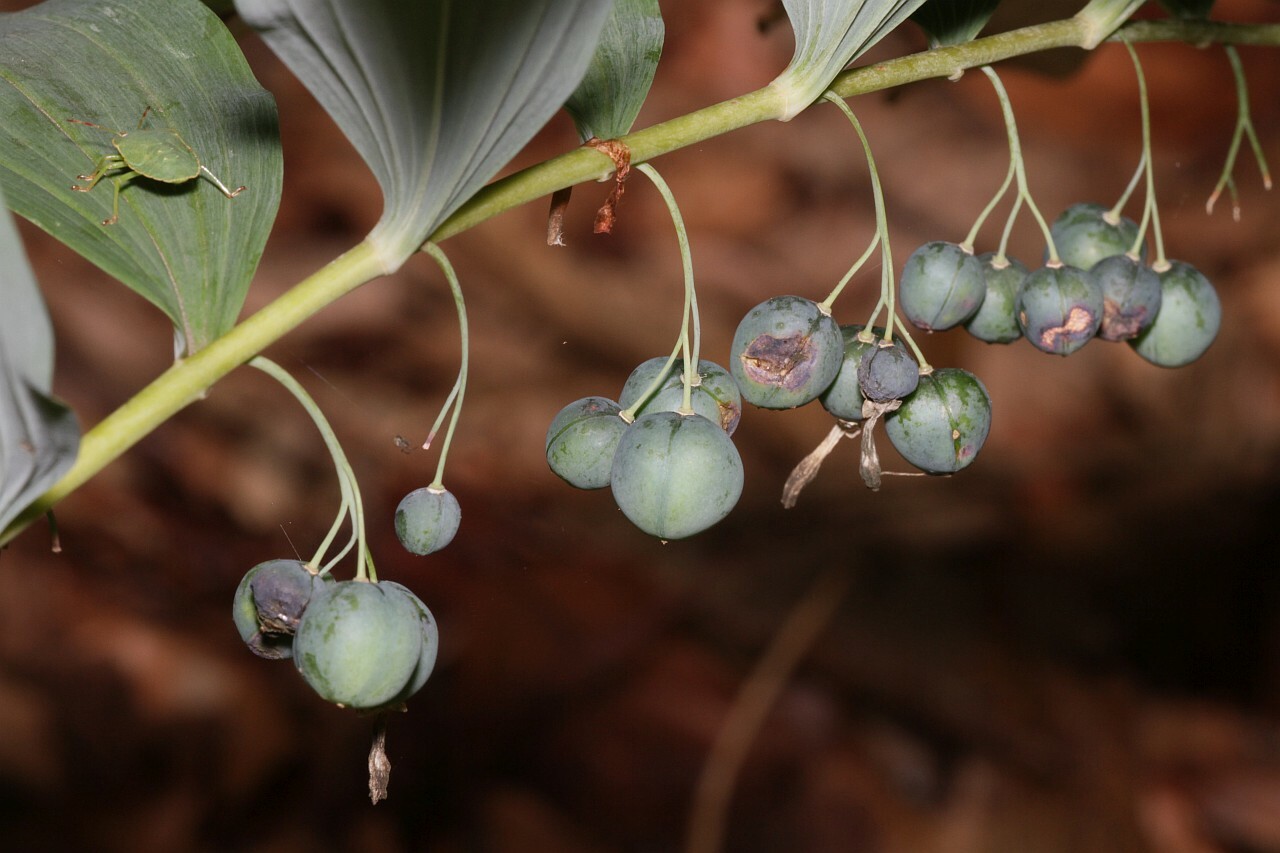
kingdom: Plantae
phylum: Tracheophyta
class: Liliopsida
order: Asparagales
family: Asparagaceae
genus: Polygonatum
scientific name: Polygonatum multiflorum
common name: Solomon's-seal
